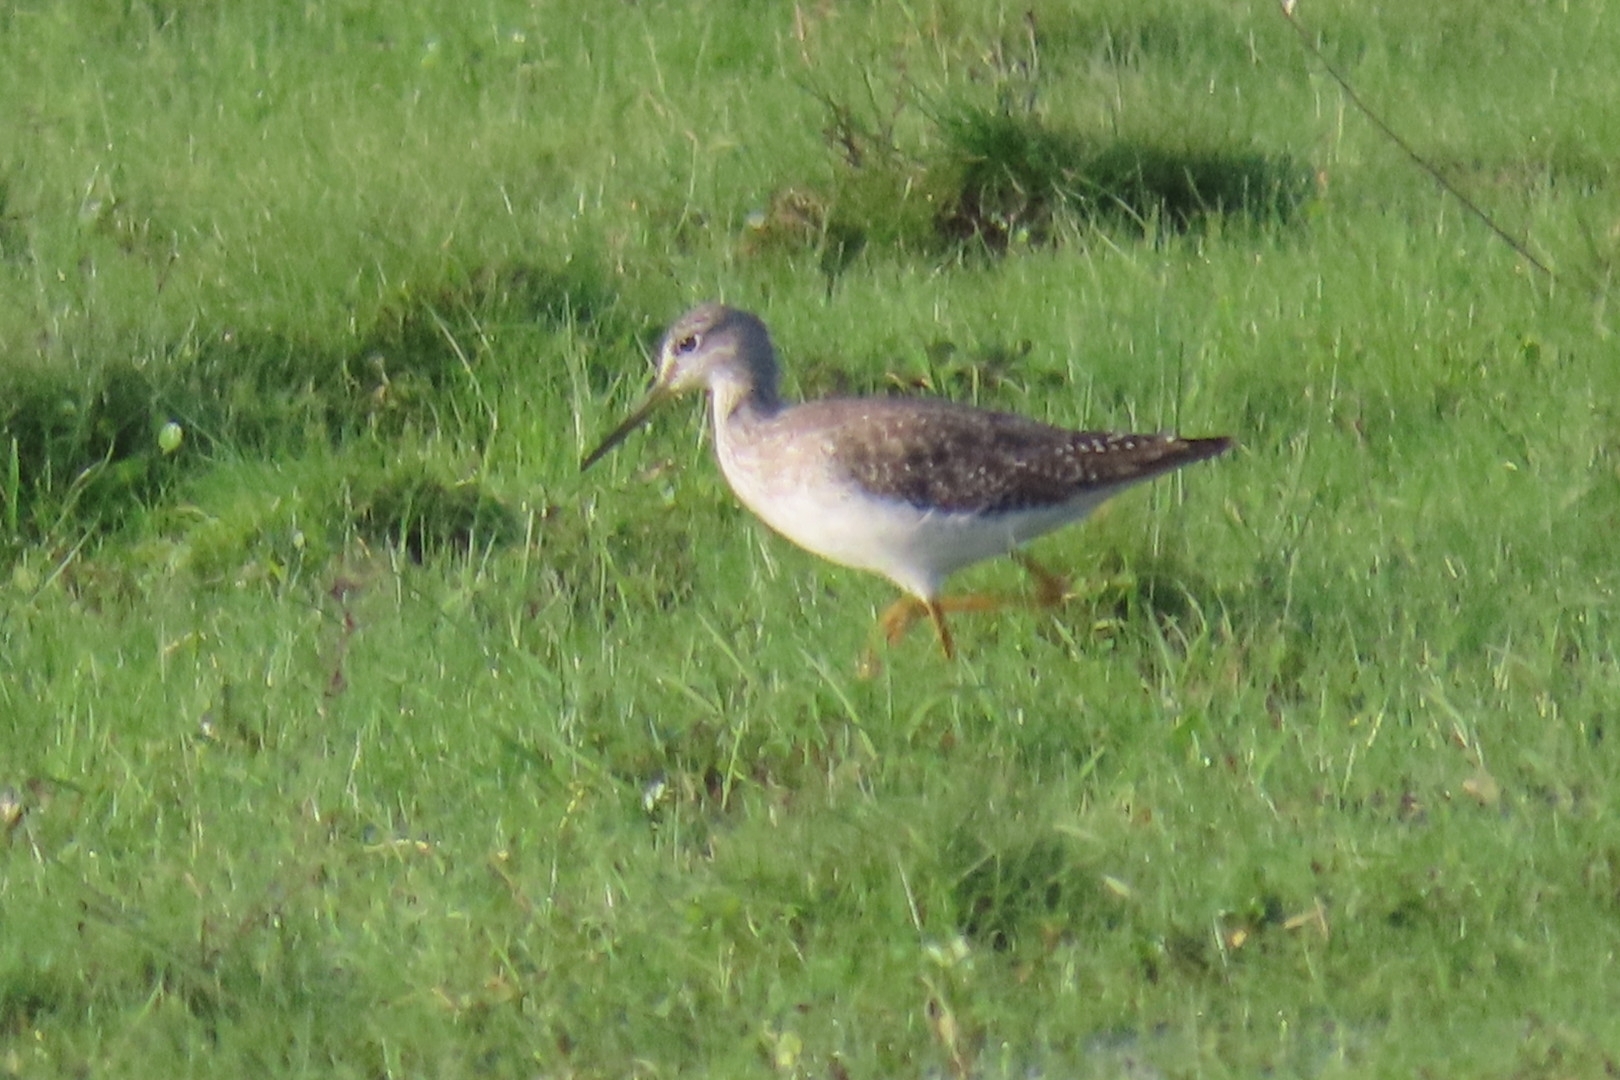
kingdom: Animalia
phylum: Chordata
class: Aves
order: Charadriiformes
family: Scolopacidae
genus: Tringa
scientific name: Tringa flavipes
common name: Lesser yellowlegs
